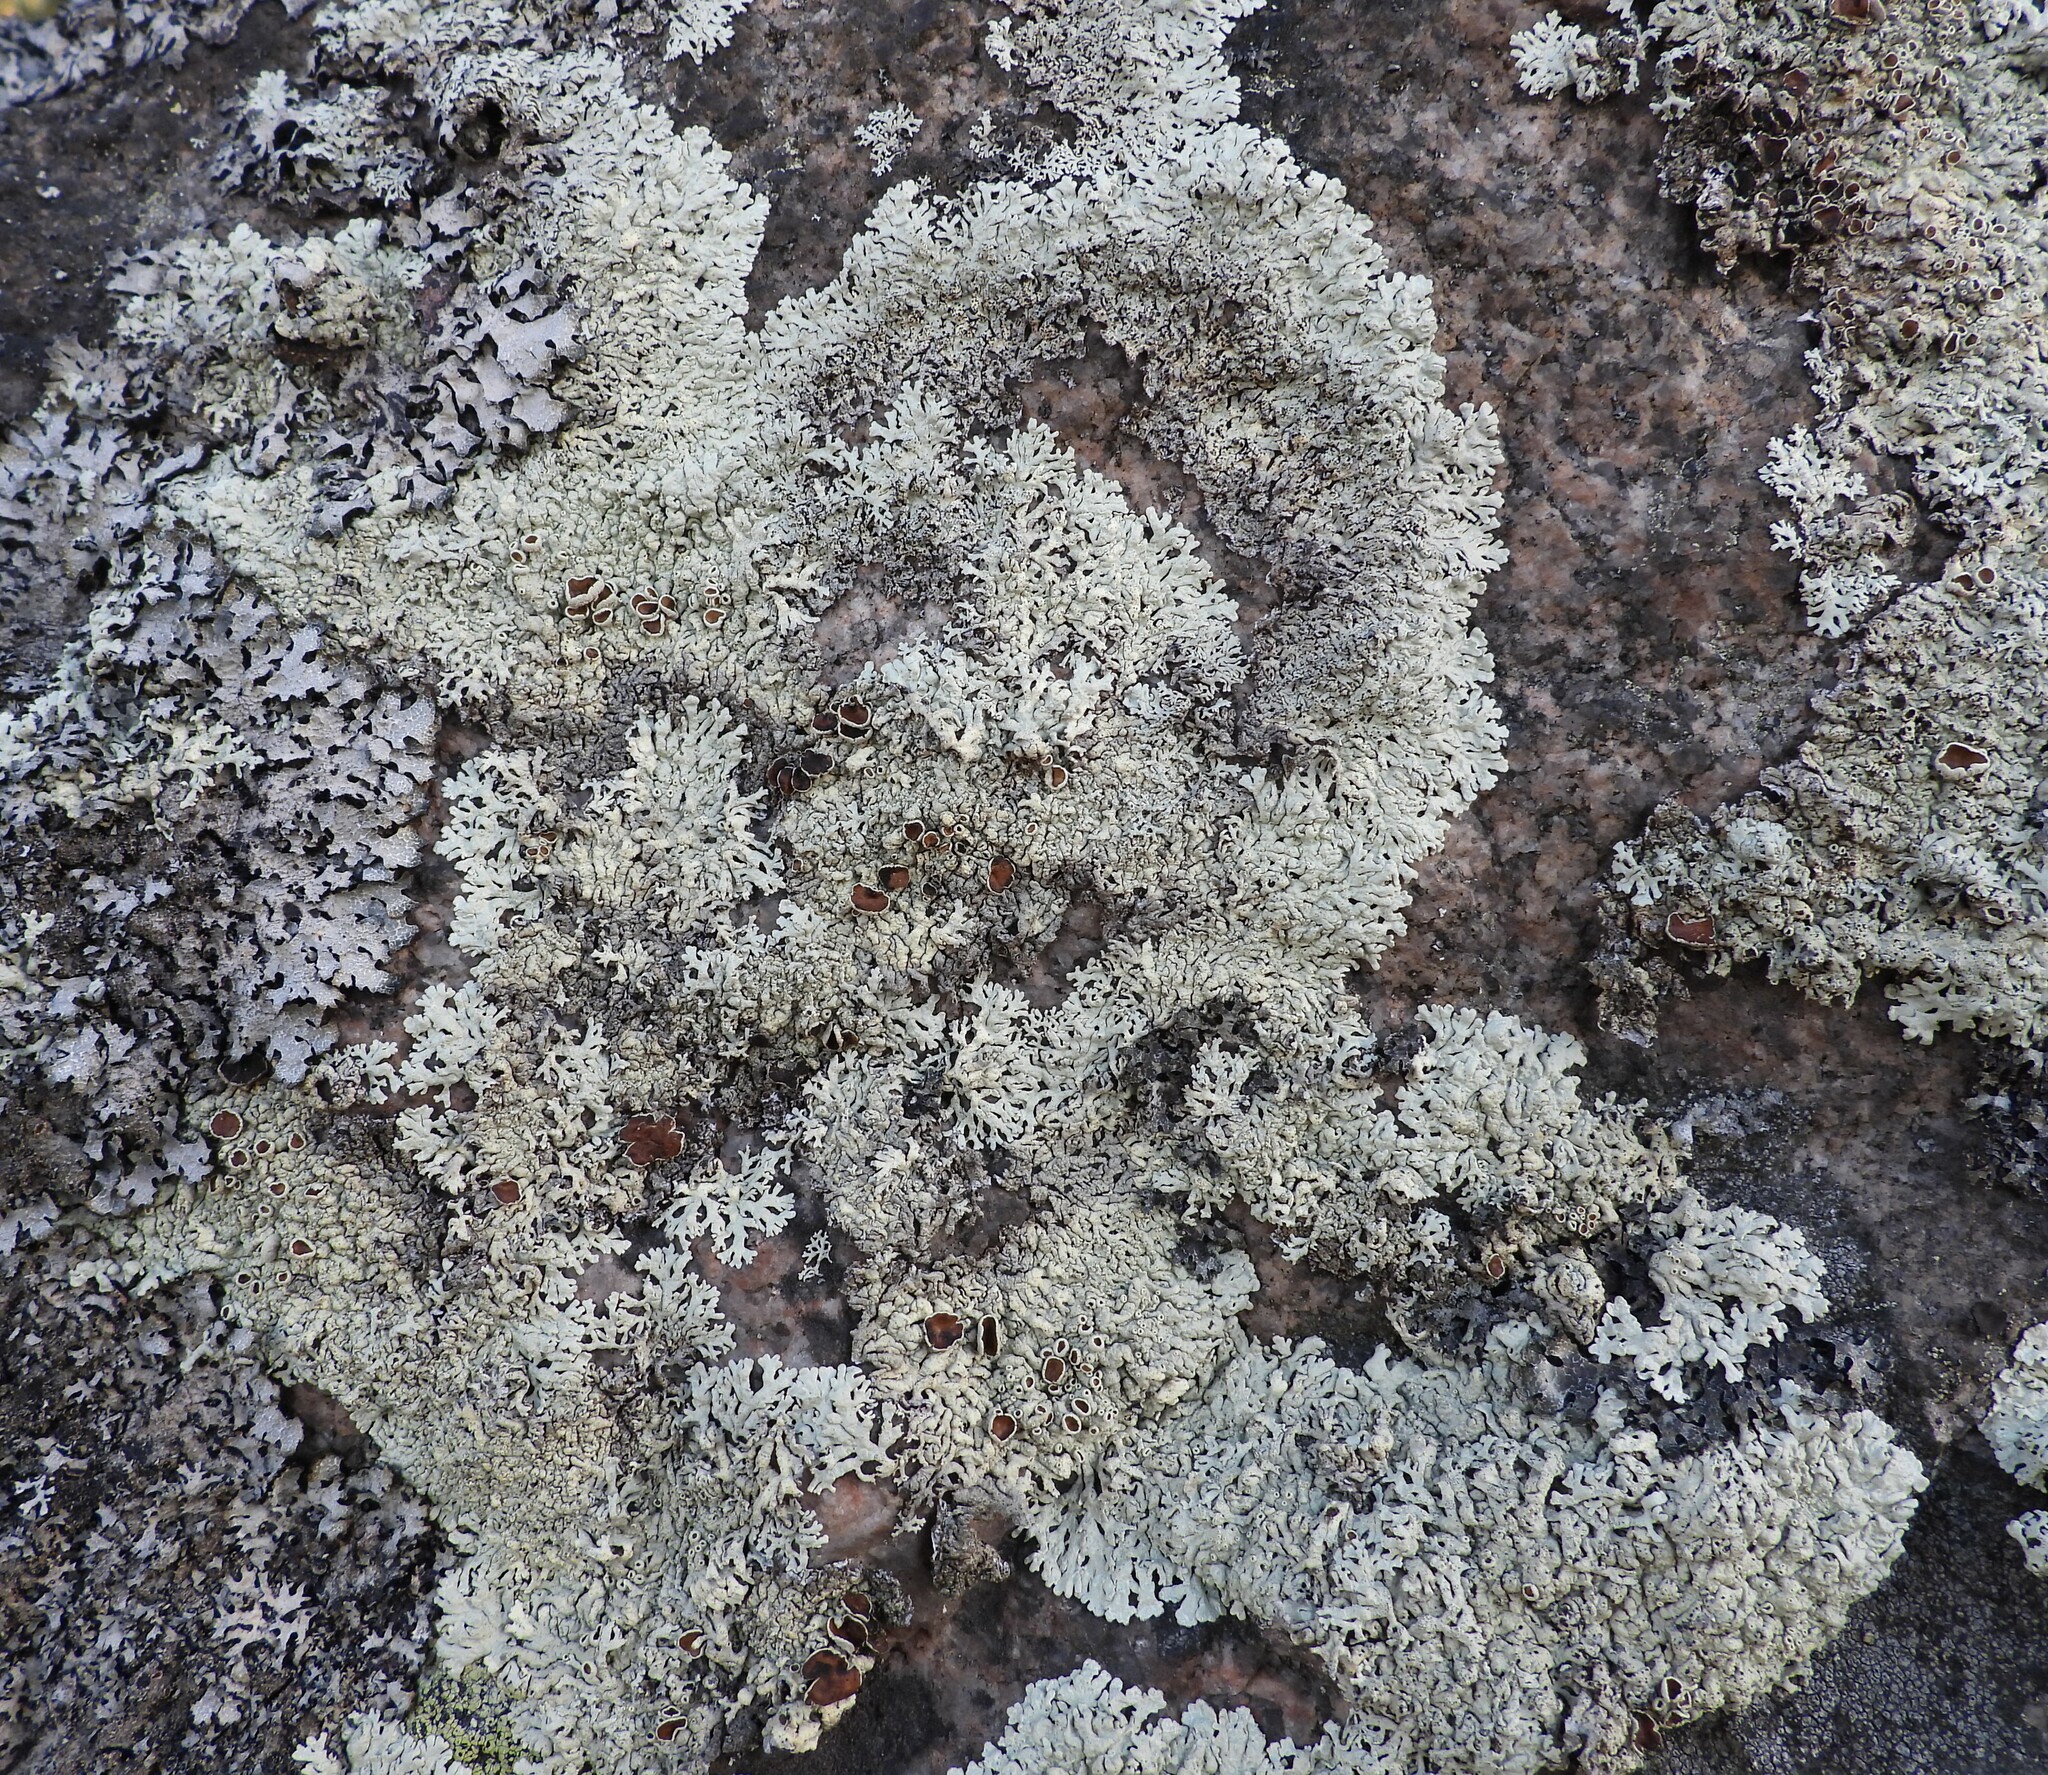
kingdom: Fungi
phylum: Ascomycota
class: Lecanoromycetes
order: Lecanorales
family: Parmeliaceae
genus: Arctoparmelia
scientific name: Arctoparmelia centrifuga
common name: Concentric ring lichen
